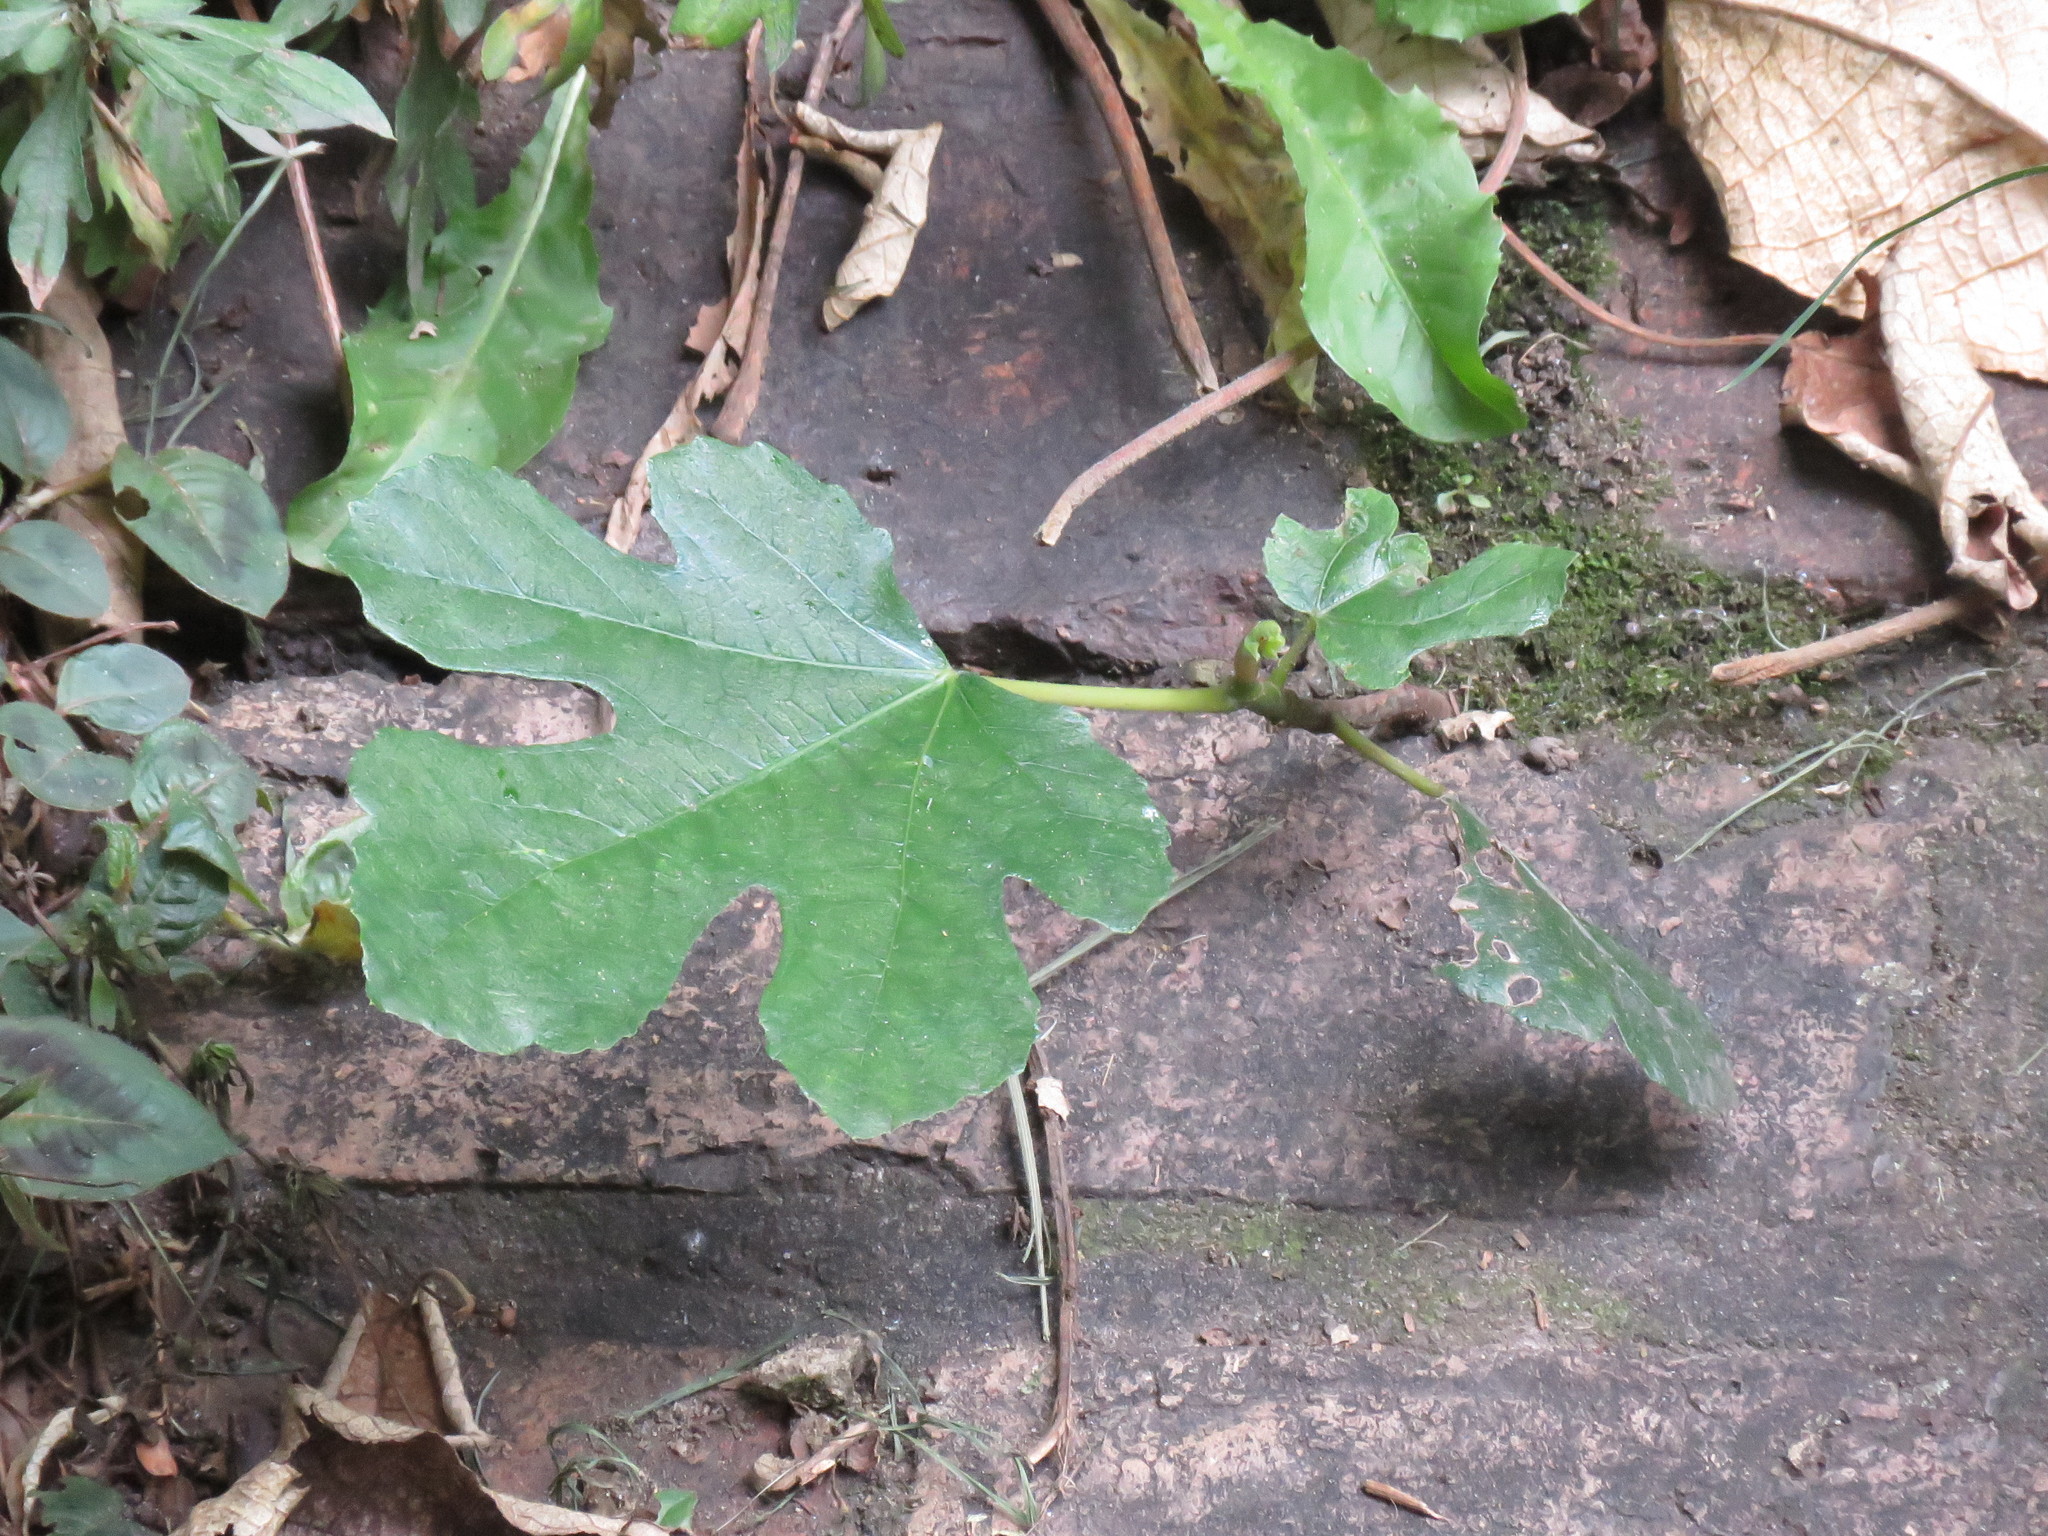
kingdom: Plantae
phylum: Tracheophyta
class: Magnoliopsida
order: Rosales
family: Moraceae
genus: Ficus
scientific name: Ficus carica
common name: Fig
